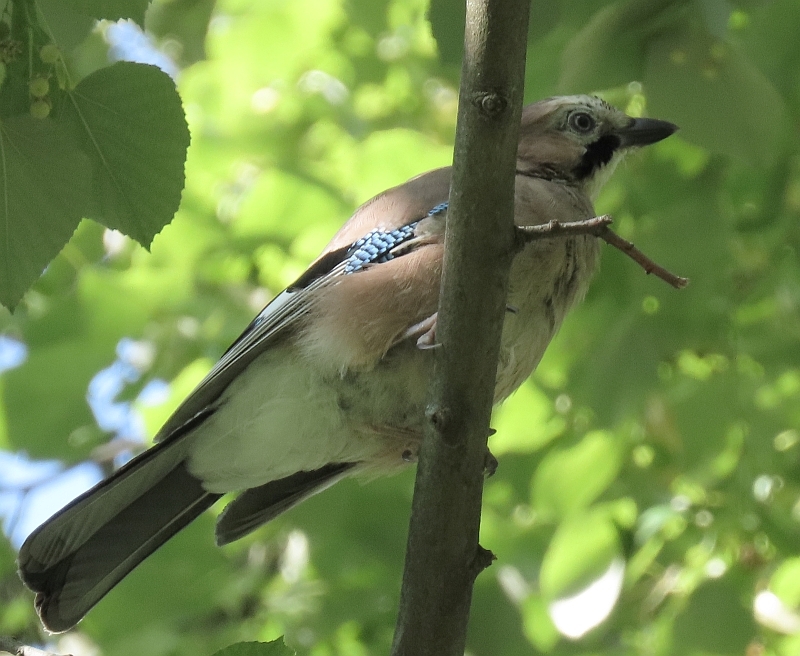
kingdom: Animalia
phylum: Chordata
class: Aves
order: Passeriformes
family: Corvidae
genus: Garrulus
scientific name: Garrulus glandarius
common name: Eurasian jay
